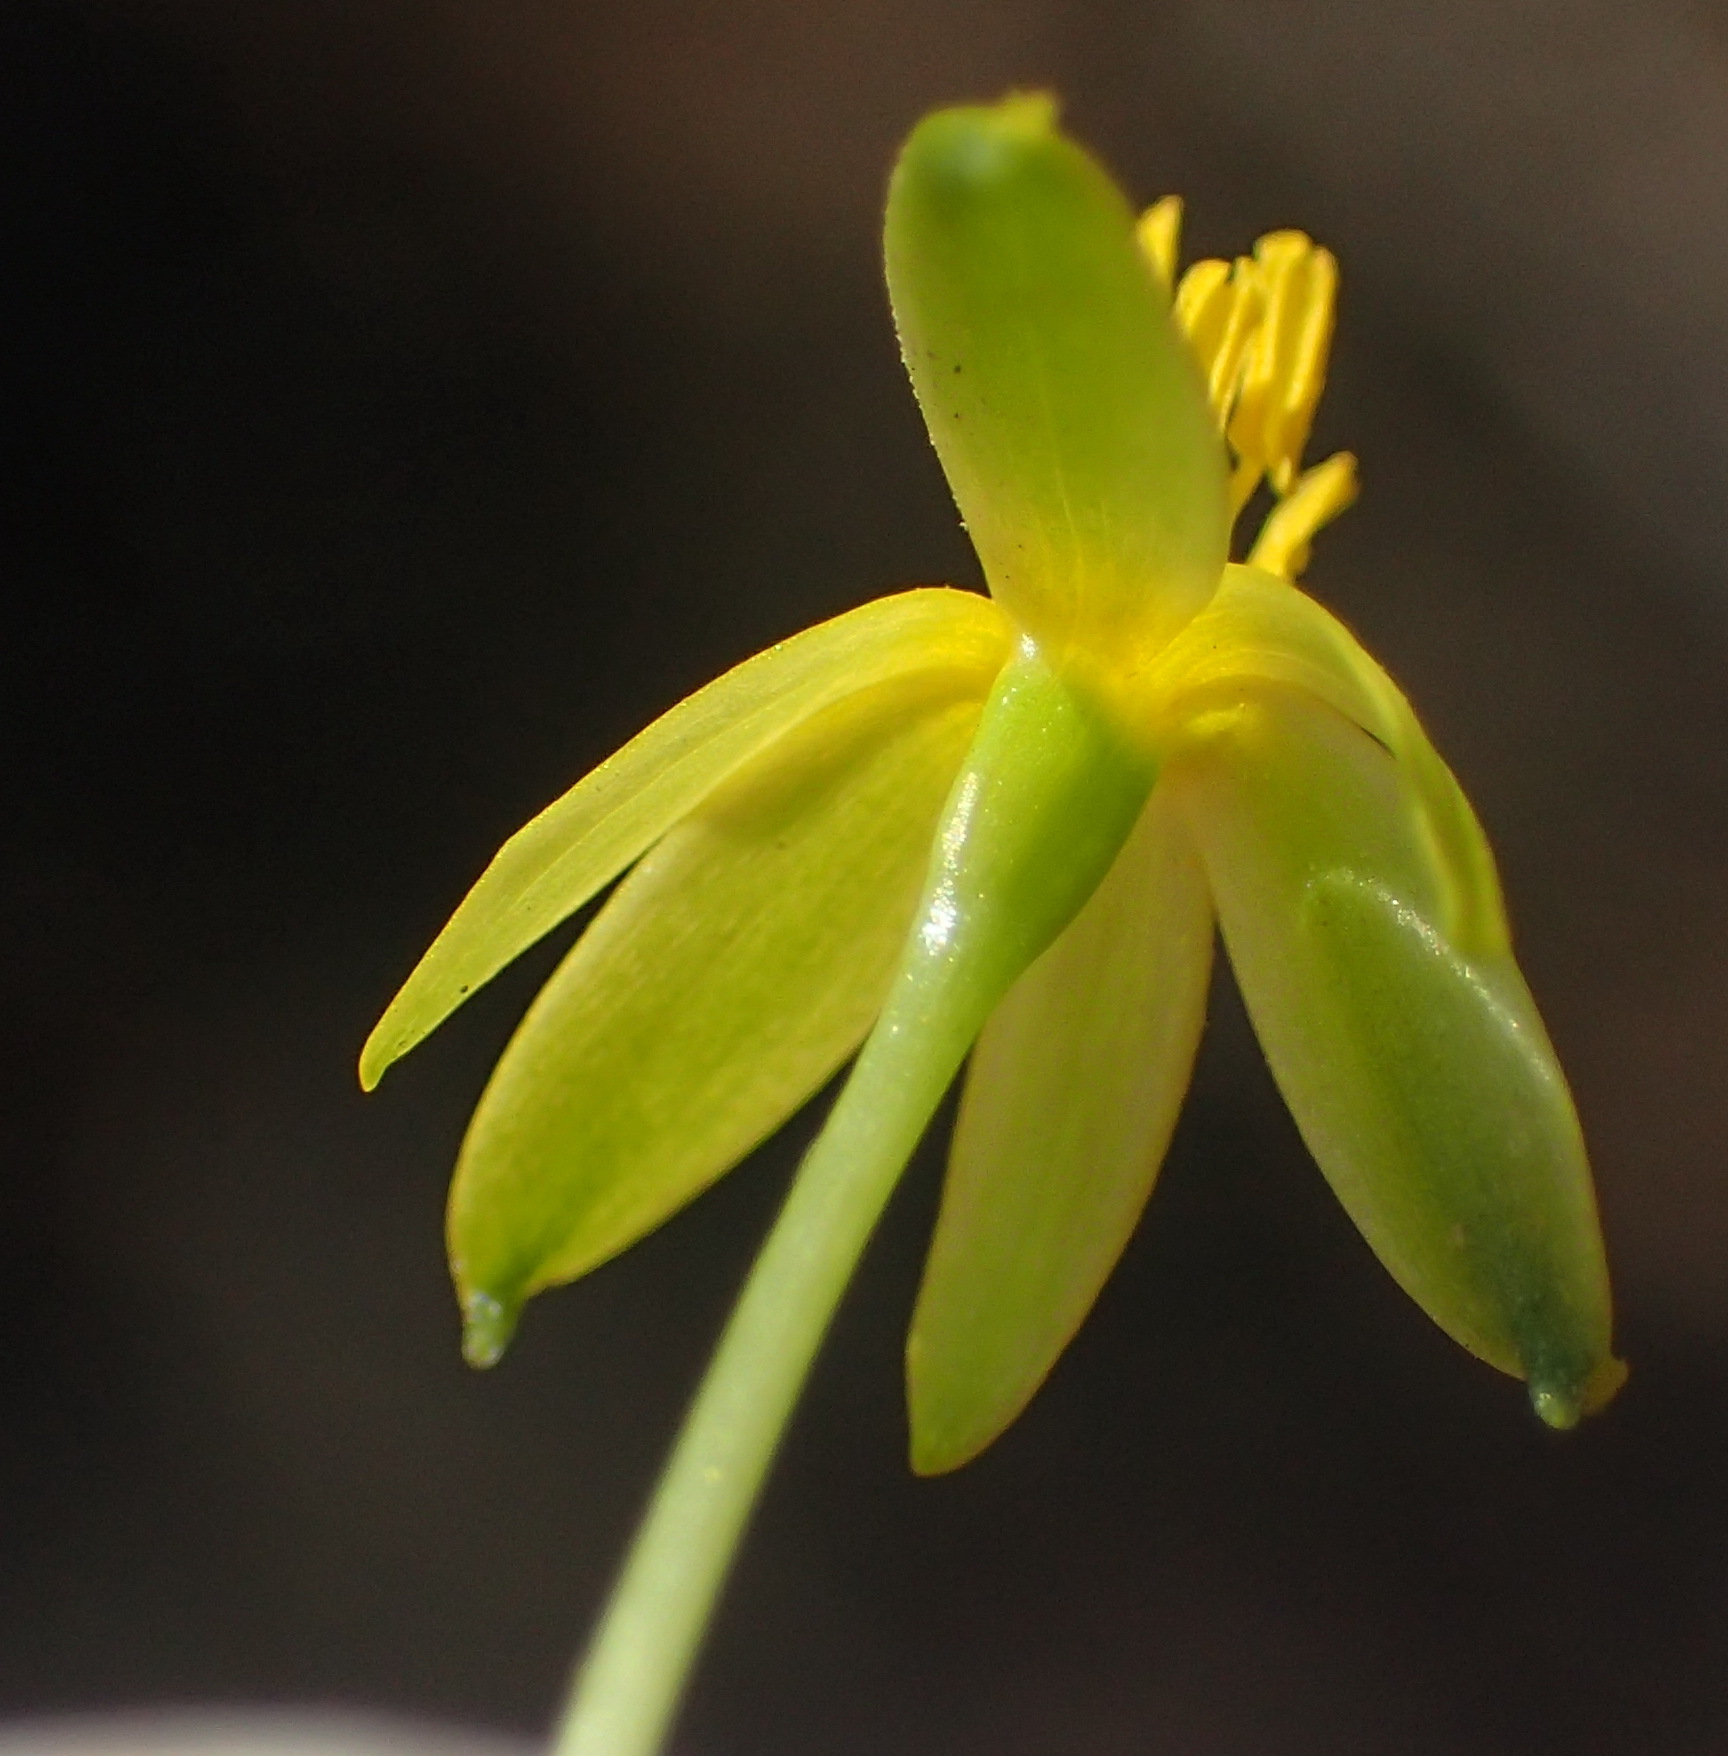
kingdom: Plantae
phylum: Tracheophyta
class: Liliopsida
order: Asparagales
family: Hypoxidaceae
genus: Pauridia
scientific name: Pauridia trifurcillata
